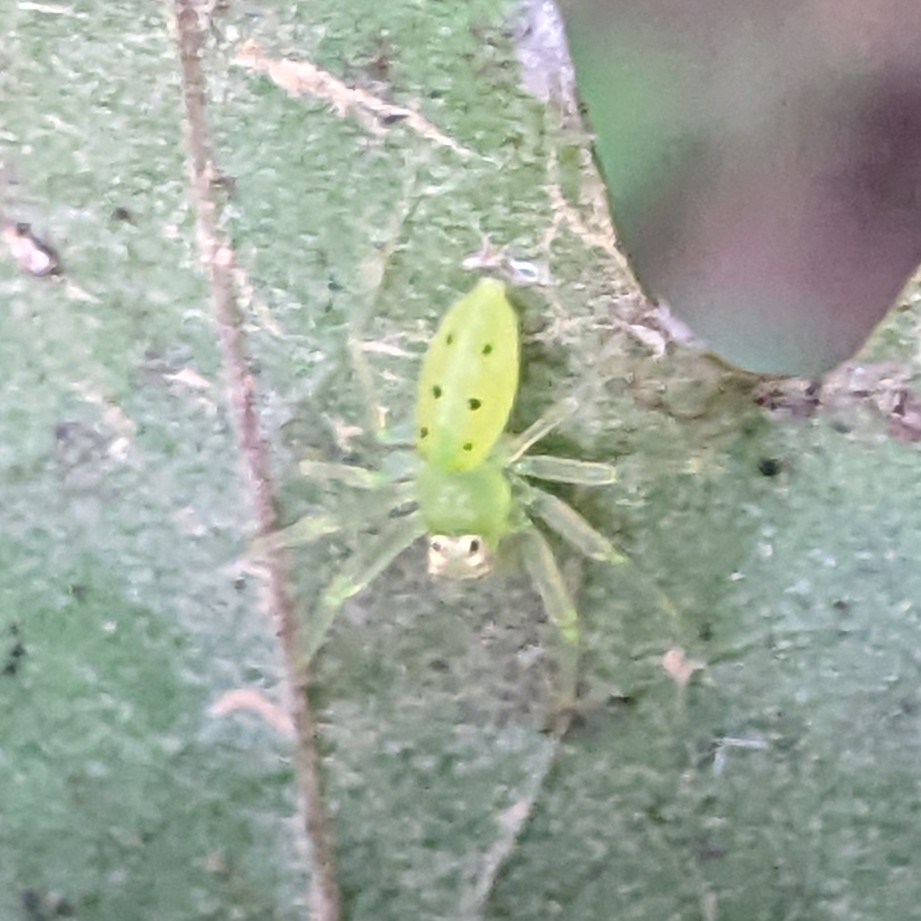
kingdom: Animalia
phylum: Arthropoda
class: Arachnida
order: Araneae
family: Salticidae
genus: Lyssomanes
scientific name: Lyssomanes viridis
